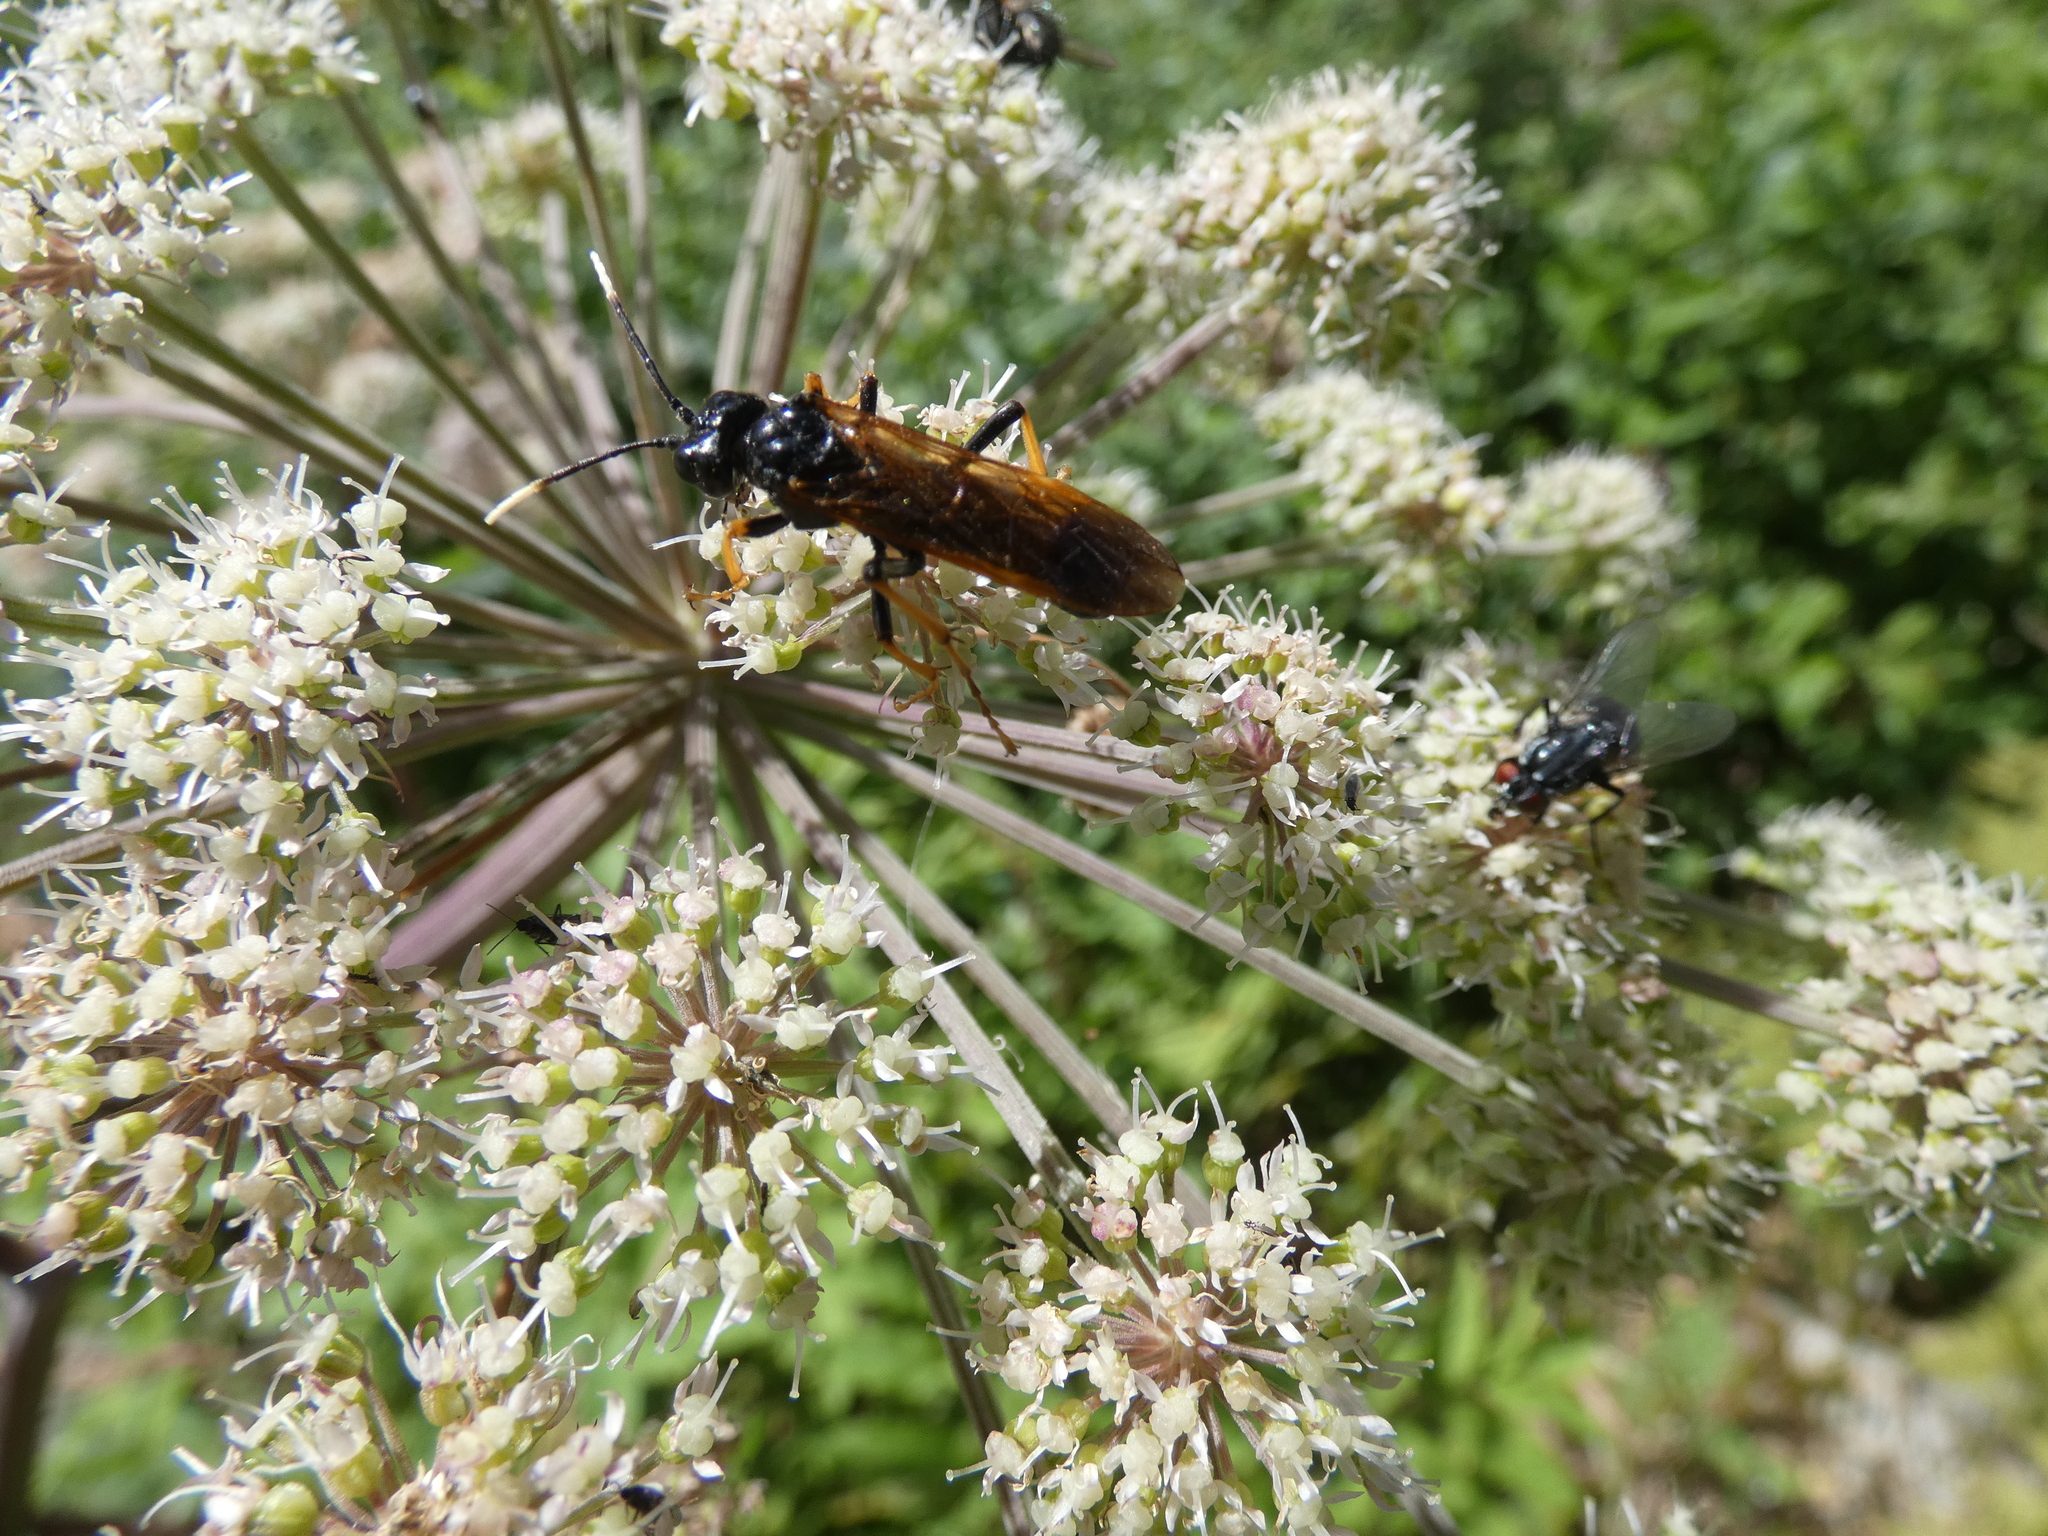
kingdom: Animalia
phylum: Arthropoda
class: Insecta
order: Hymenoptera
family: Tenthredinidae
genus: Tenthredo
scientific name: Tenthredo crassa
